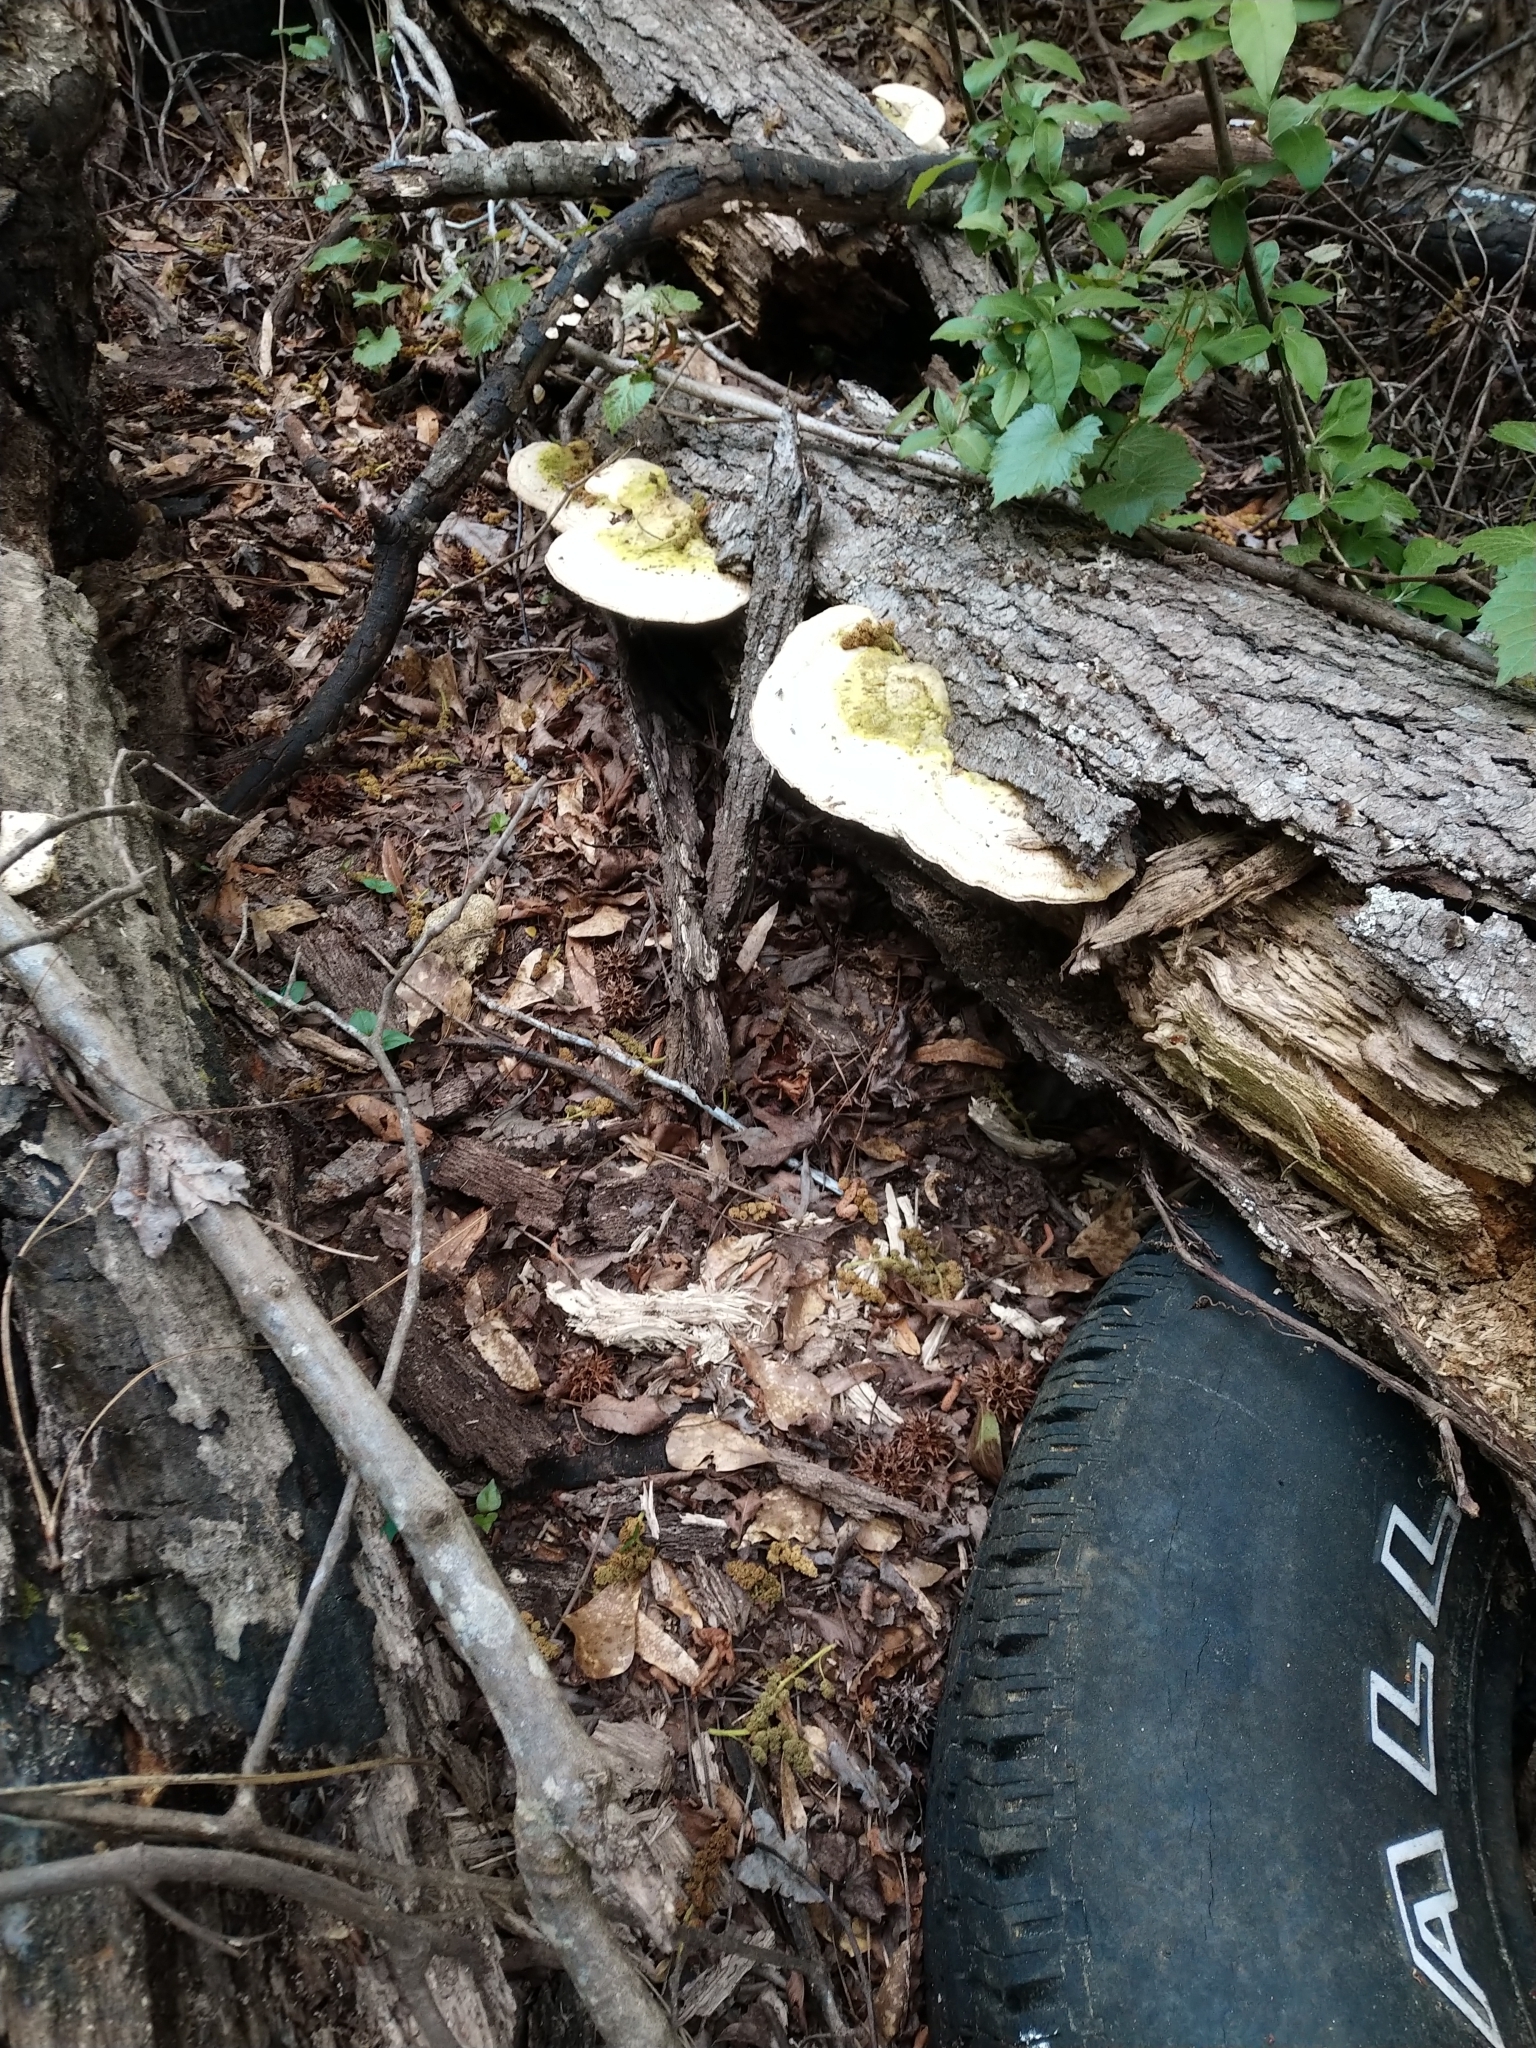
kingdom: Fungi
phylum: Basidiomycota
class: Agaricomycetes
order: Polyporales
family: Polyporaceae
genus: Trametes
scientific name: Trametes lactinea
